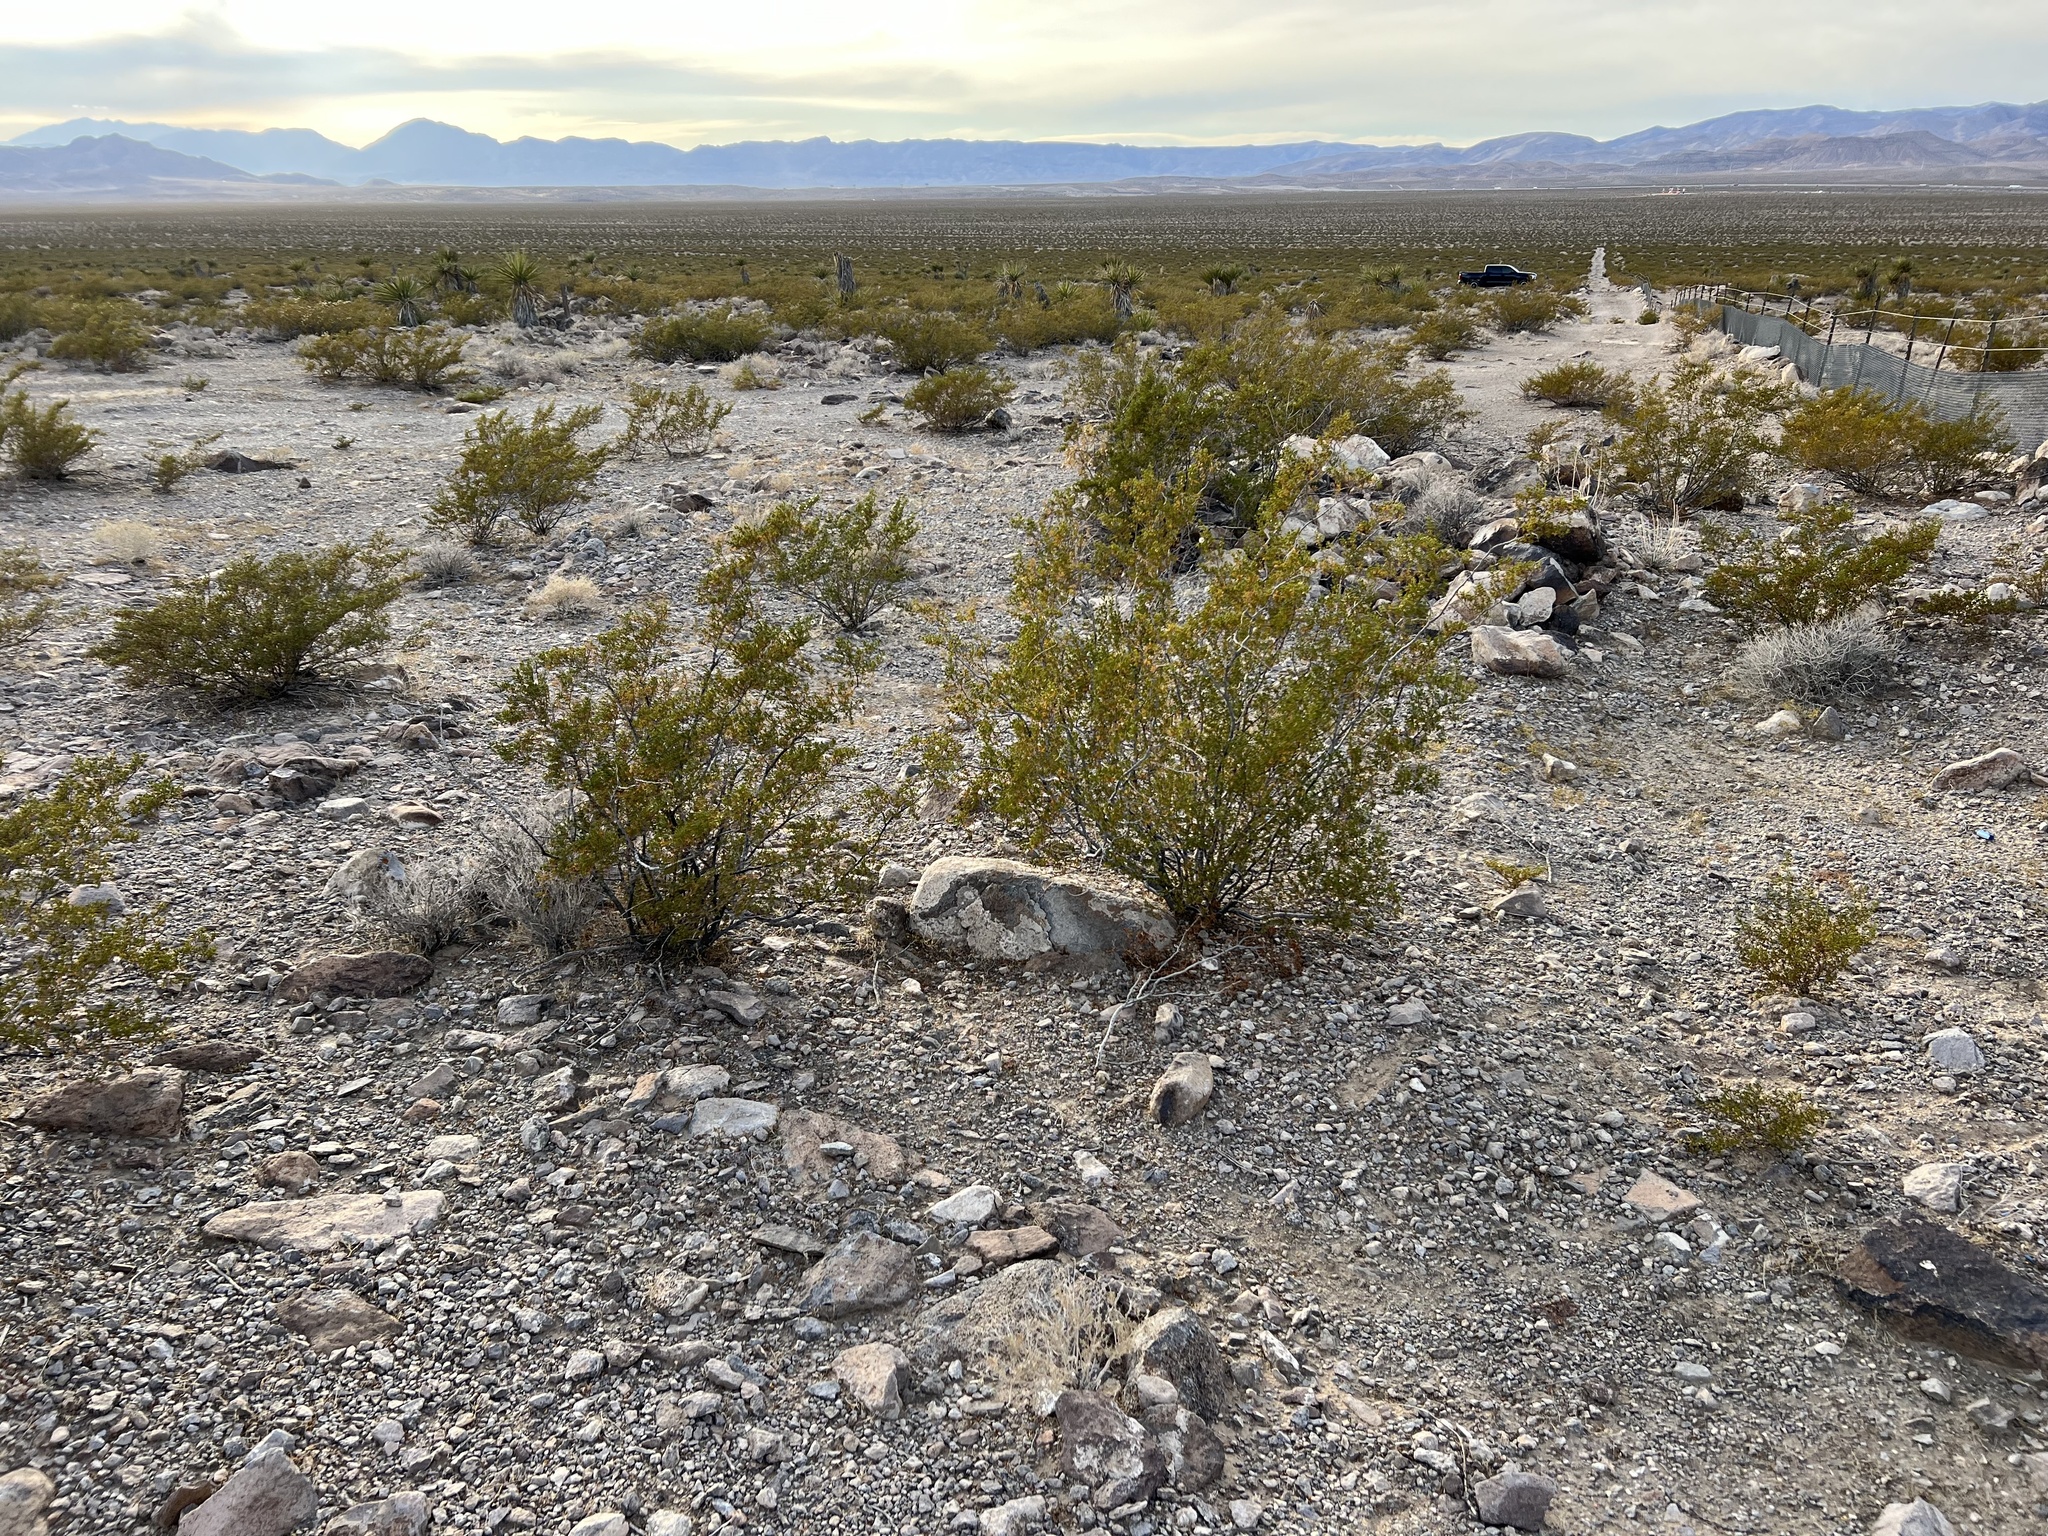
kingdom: Plantae
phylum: Tracheophyta
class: Magnoliopsida
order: Zygophyllales
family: Zygophyllaceae
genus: Larrea
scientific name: Larrea tridentata
